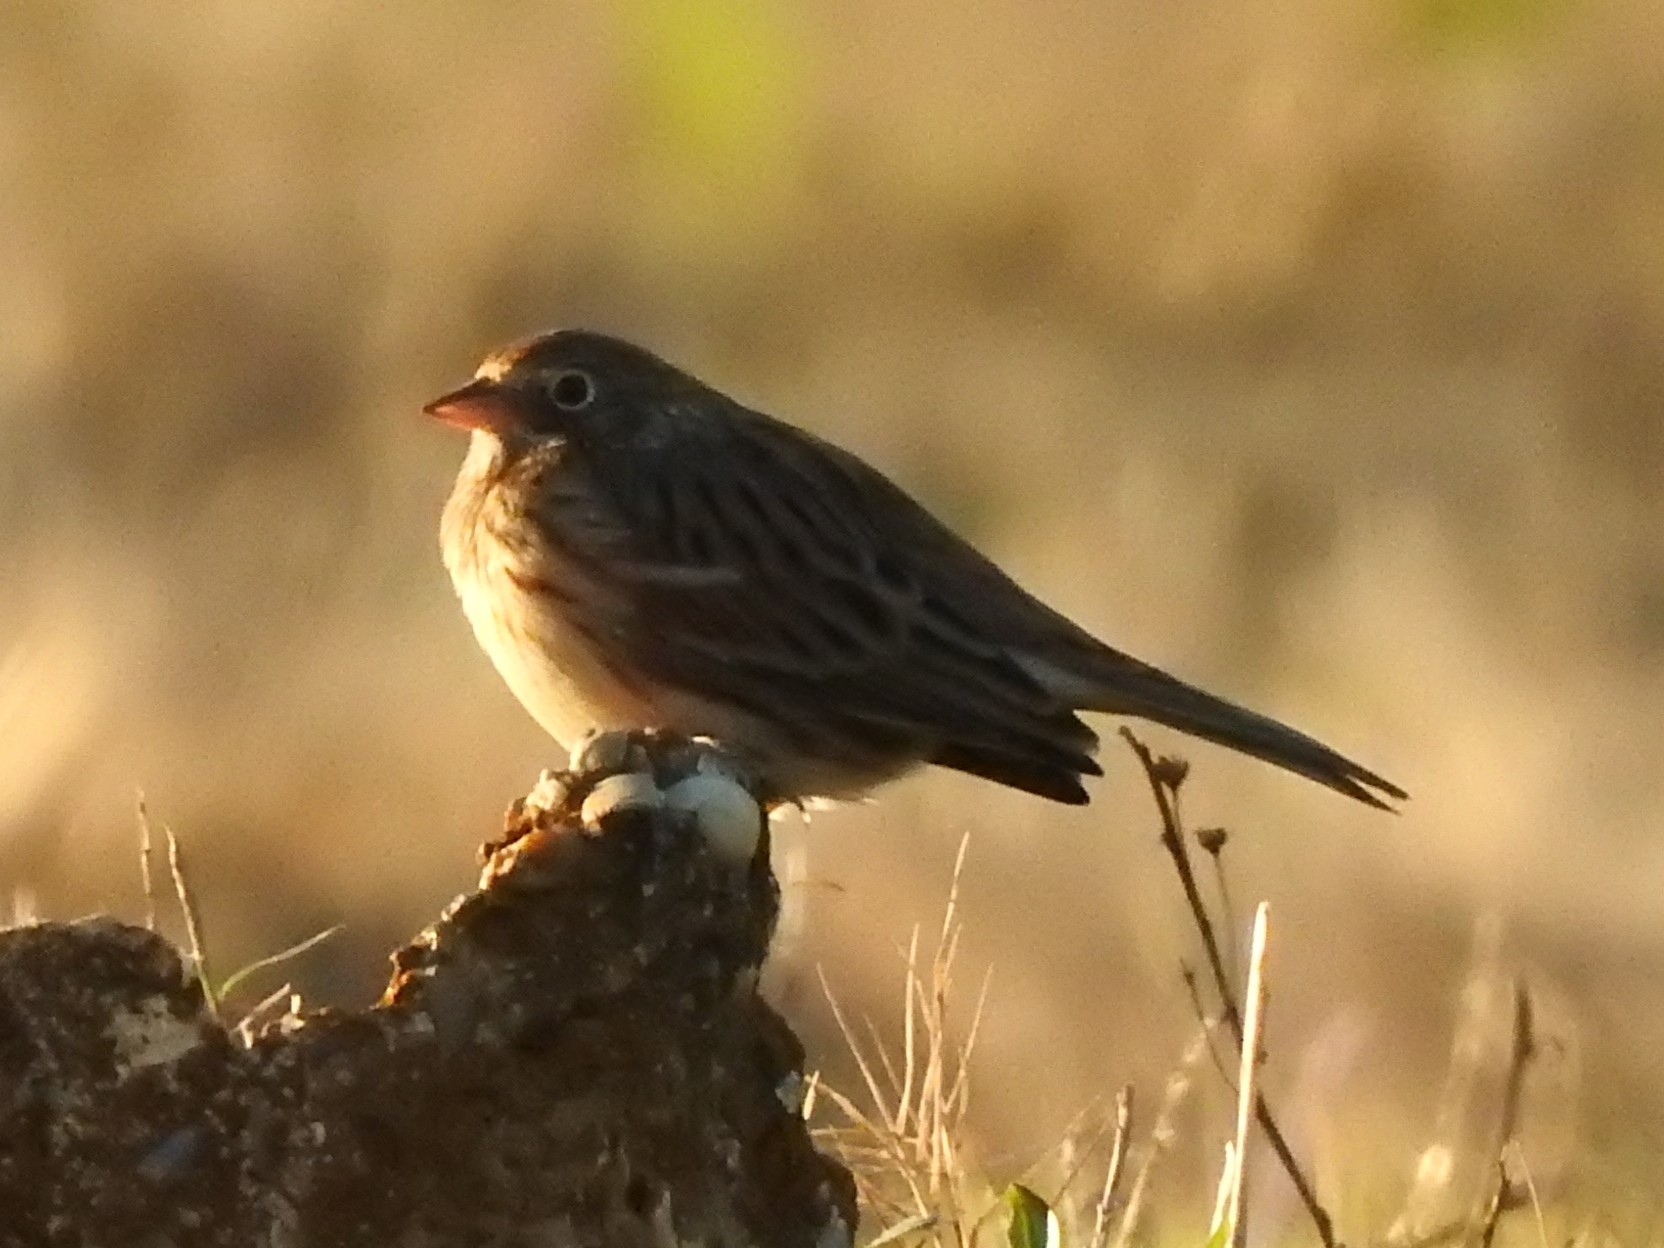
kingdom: Animalia
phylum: Chordata
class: Aves
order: Passeriformes
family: Passerellidae
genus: Pooecetes
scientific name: Pooecetes gramineus
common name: Vesper sparrow
